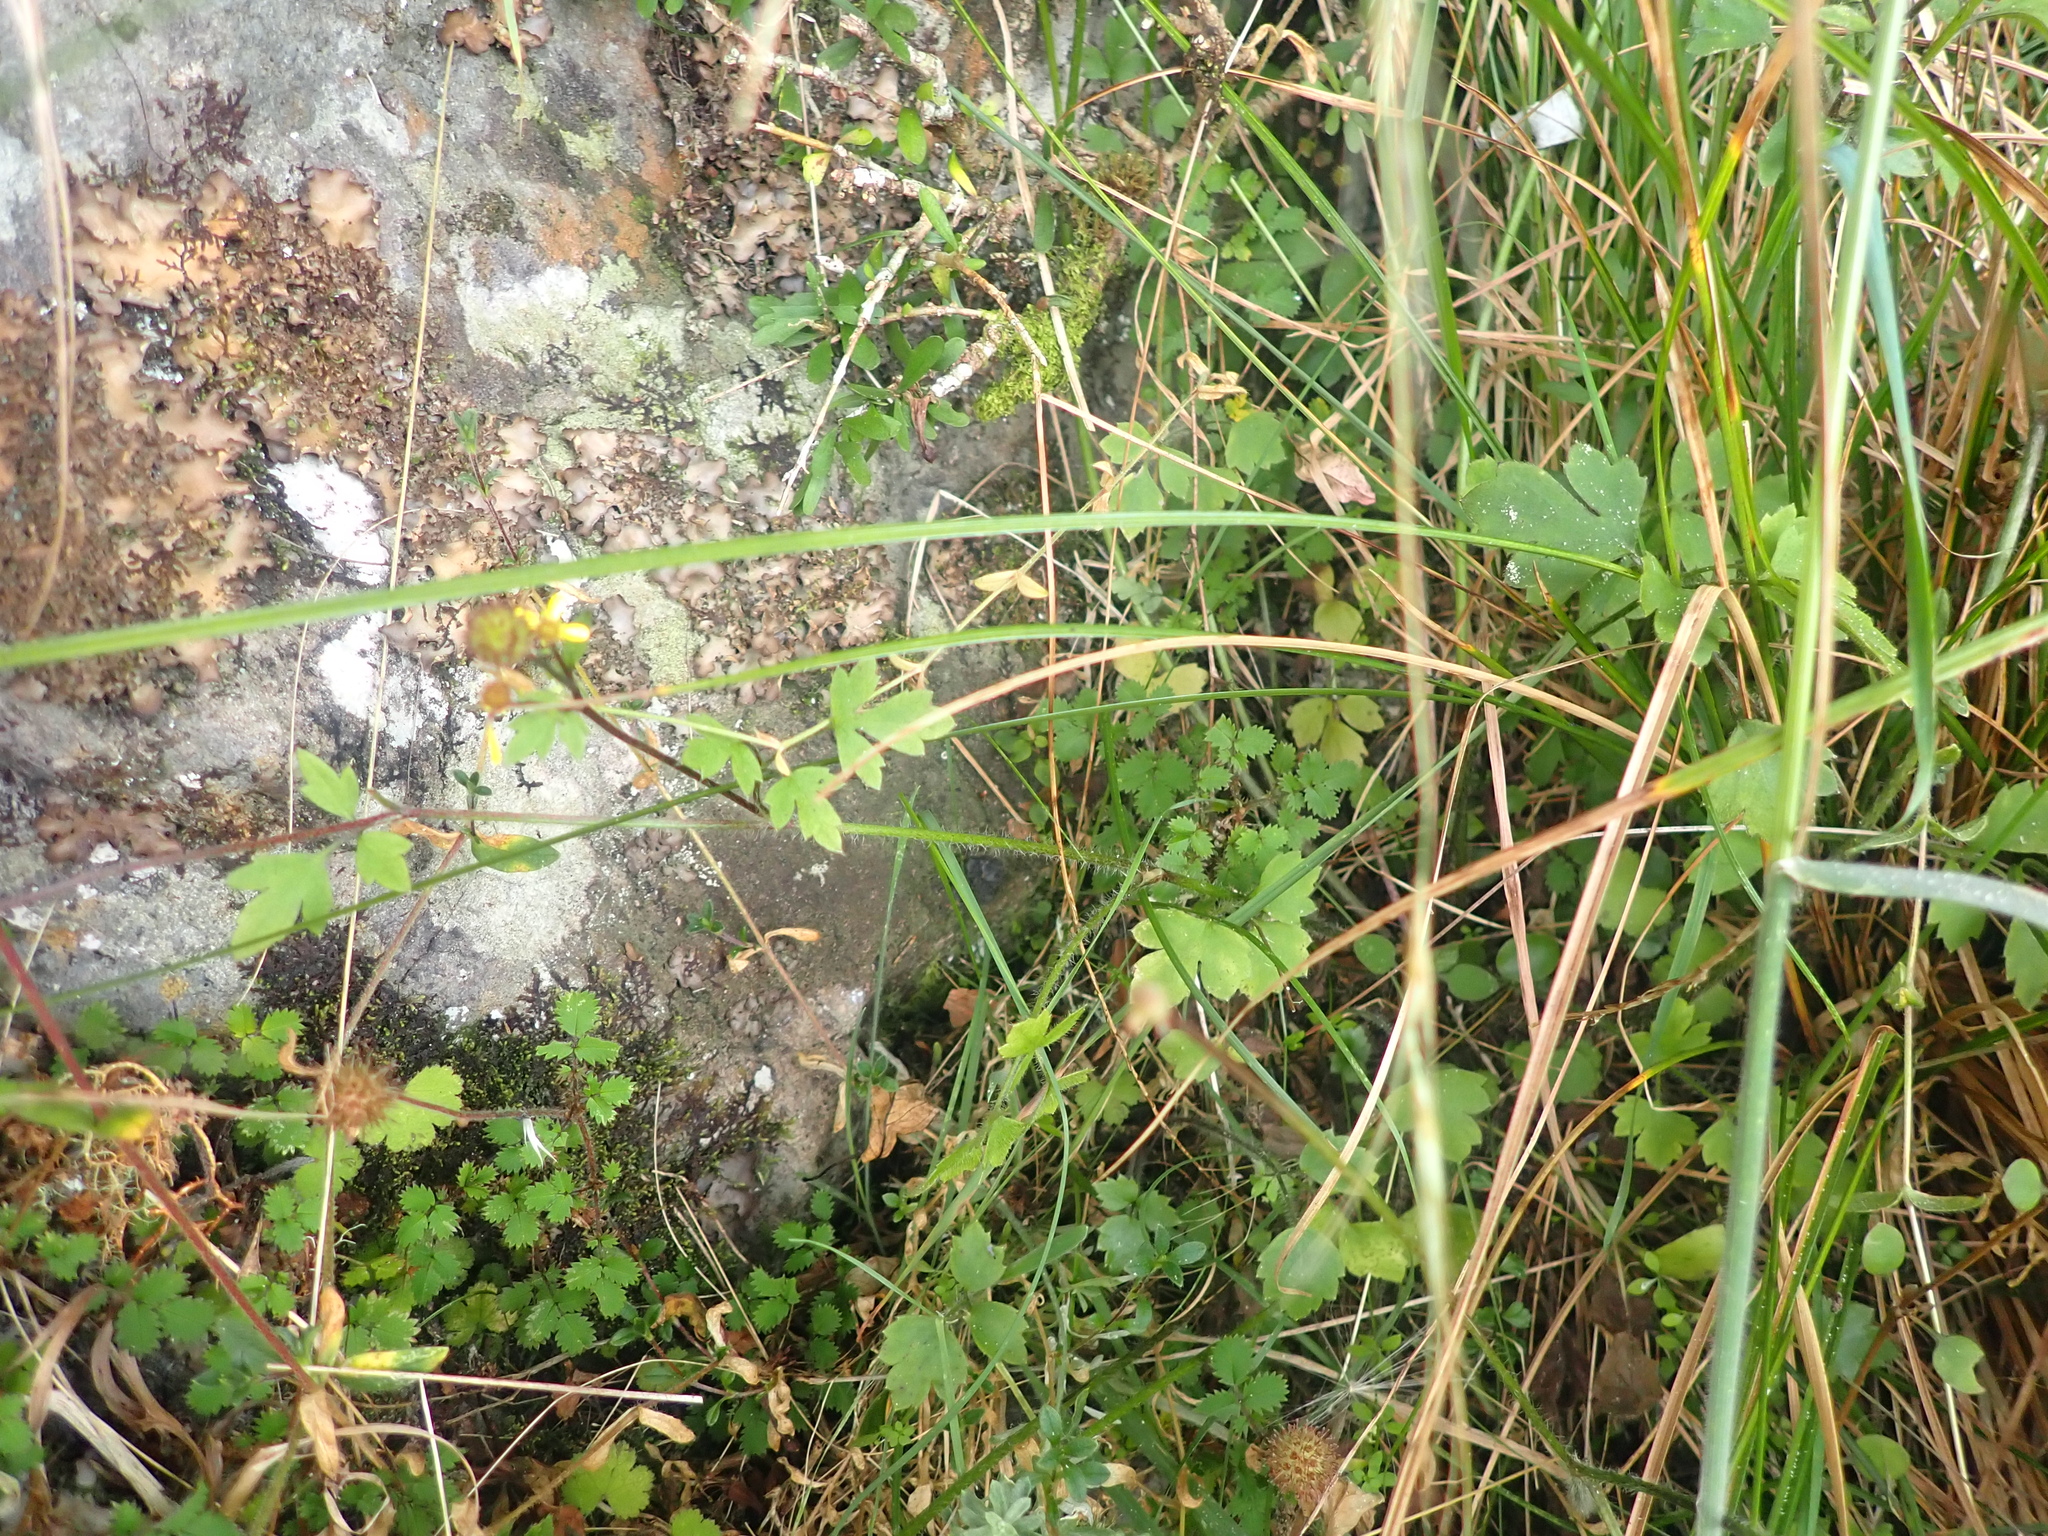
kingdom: Plantae
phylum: Tracheophyta
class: Magnoliopsida
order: Ranunculales
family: Ranunculaceae
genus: Ranunculus
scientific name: Ranunculus reflexus
